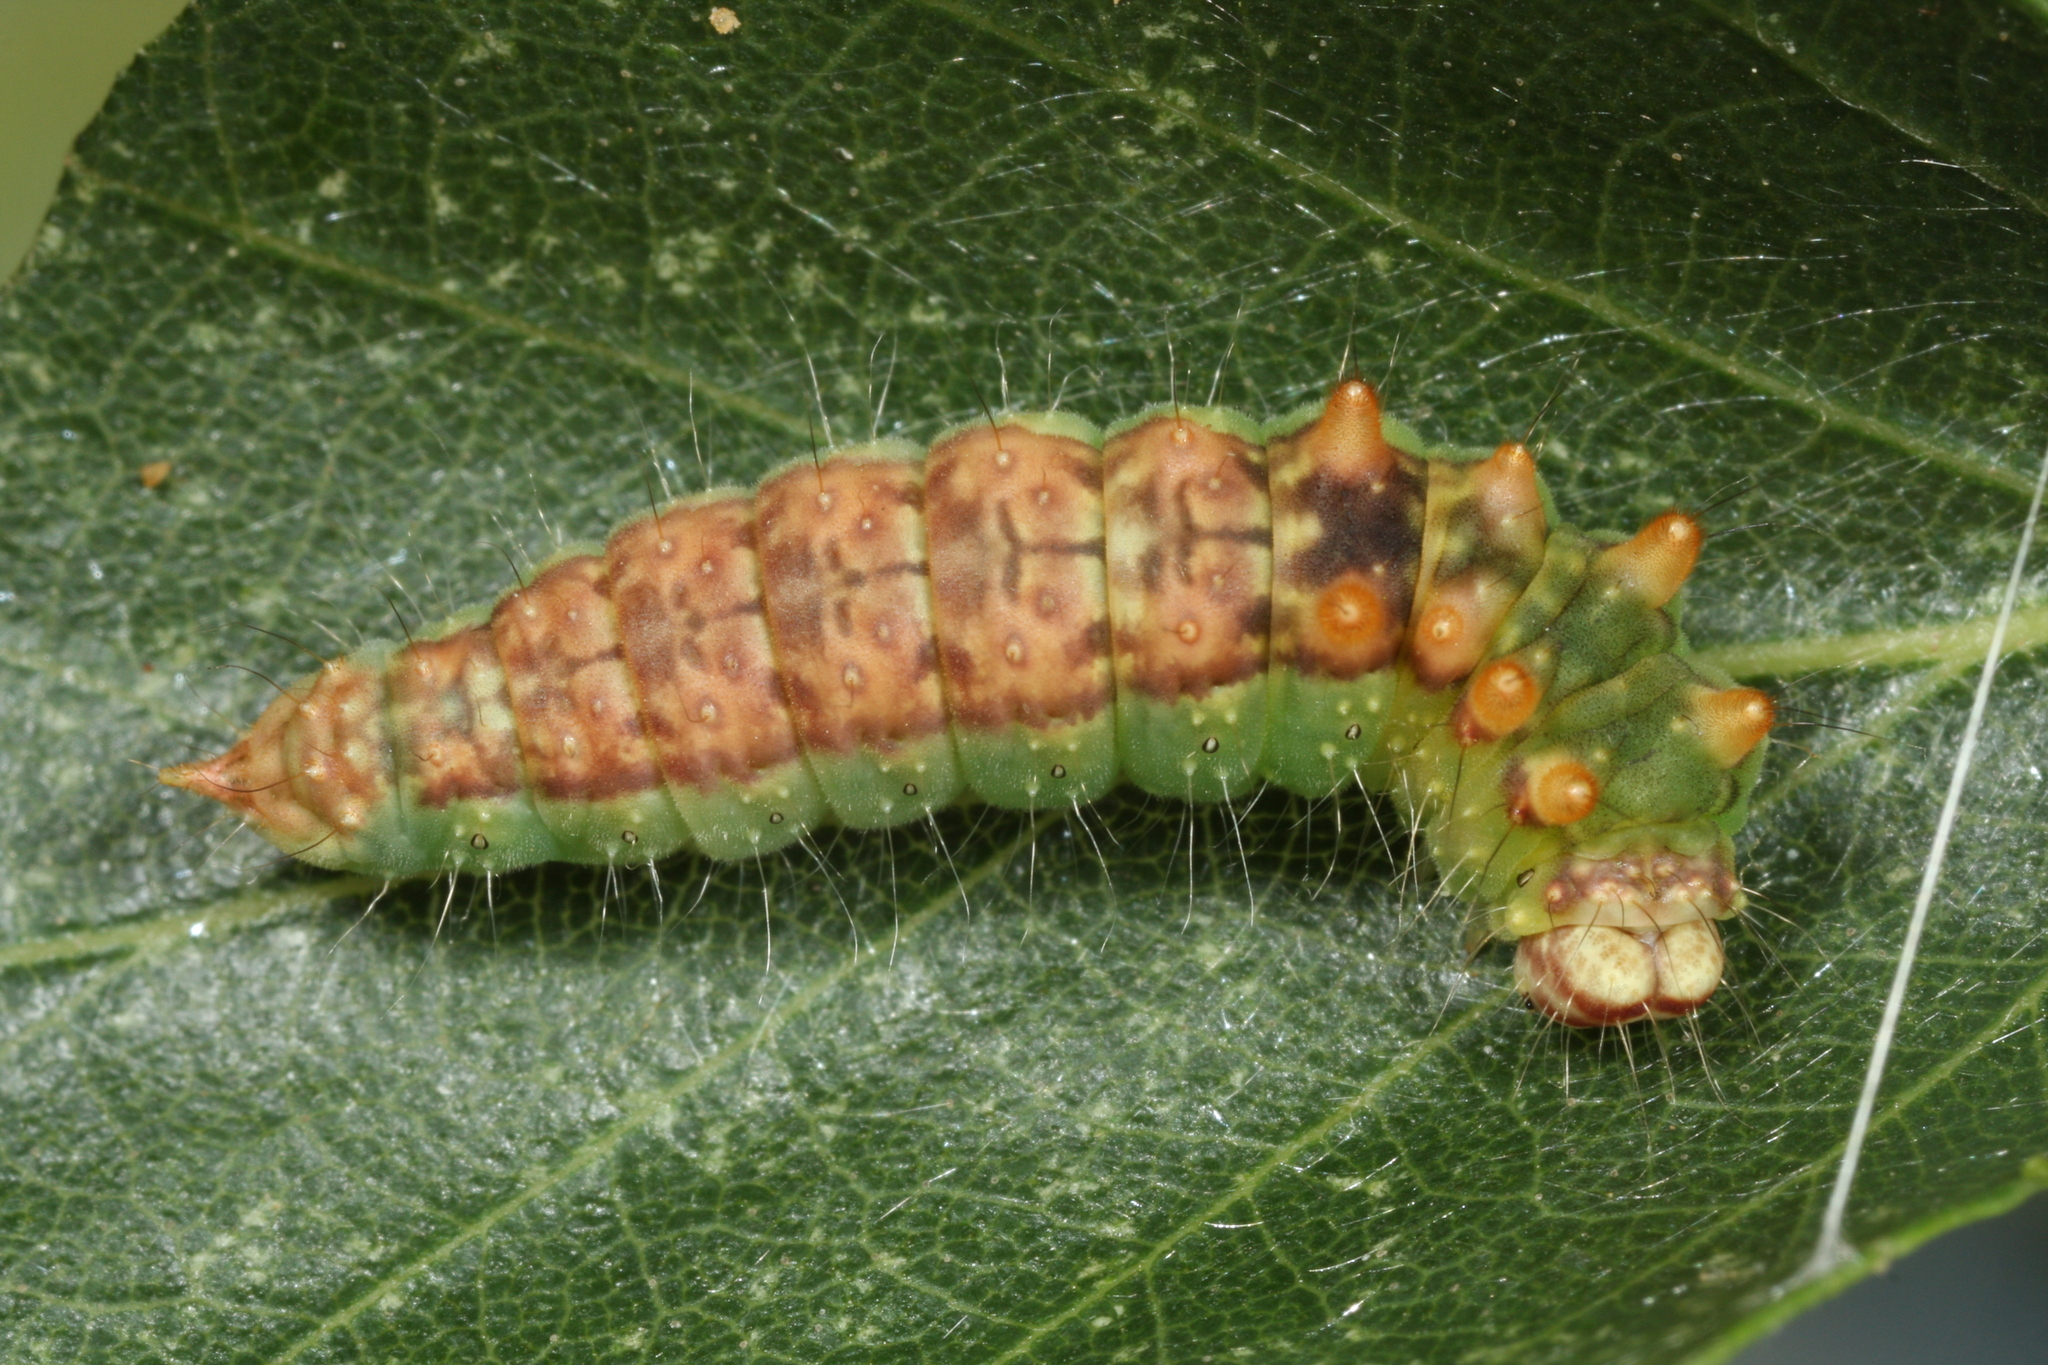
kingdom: Animalia
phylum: Arthropoda
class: Insecta
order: Lepidoptera
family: Drepanidae
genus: Drepana
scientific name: Drepana falcataria
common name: Pebble hook-tip
